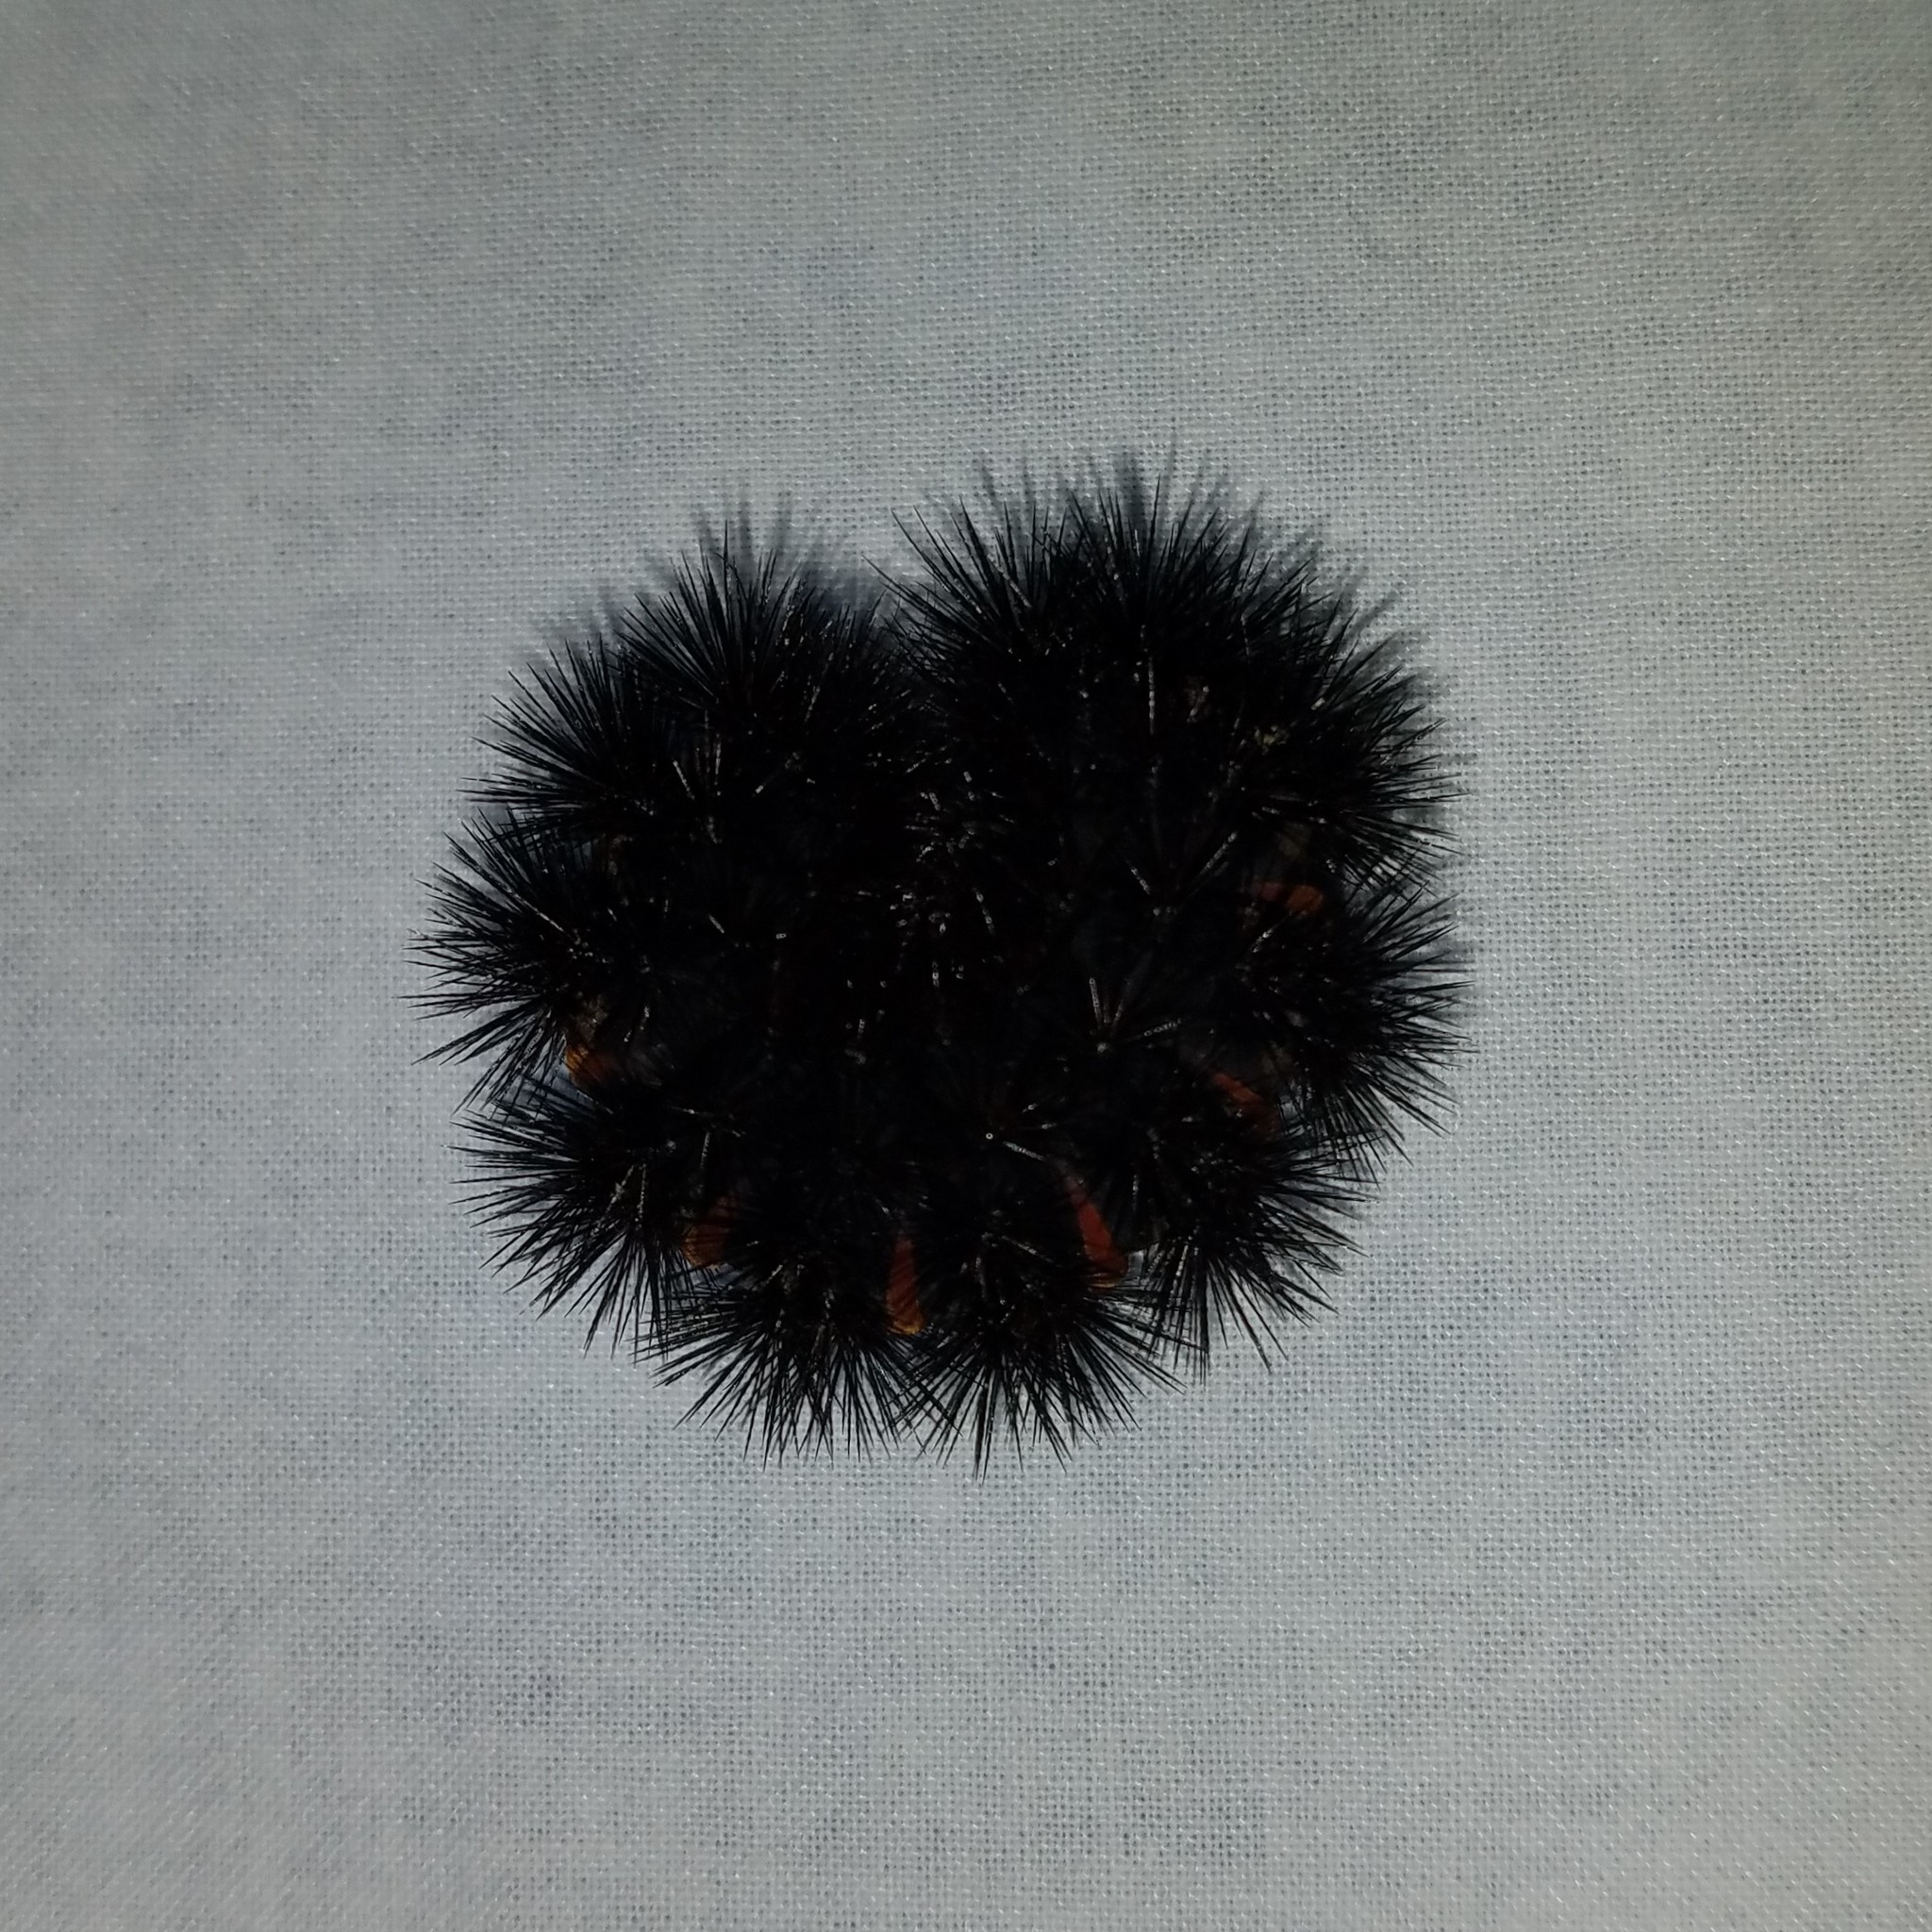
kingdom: Animalia
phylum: Arthropoda
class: Insecta
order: Lepidoptera
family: Erebidae
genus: Hypercompe
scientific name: Hypercompe scribonia
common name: Giant leopard moth
